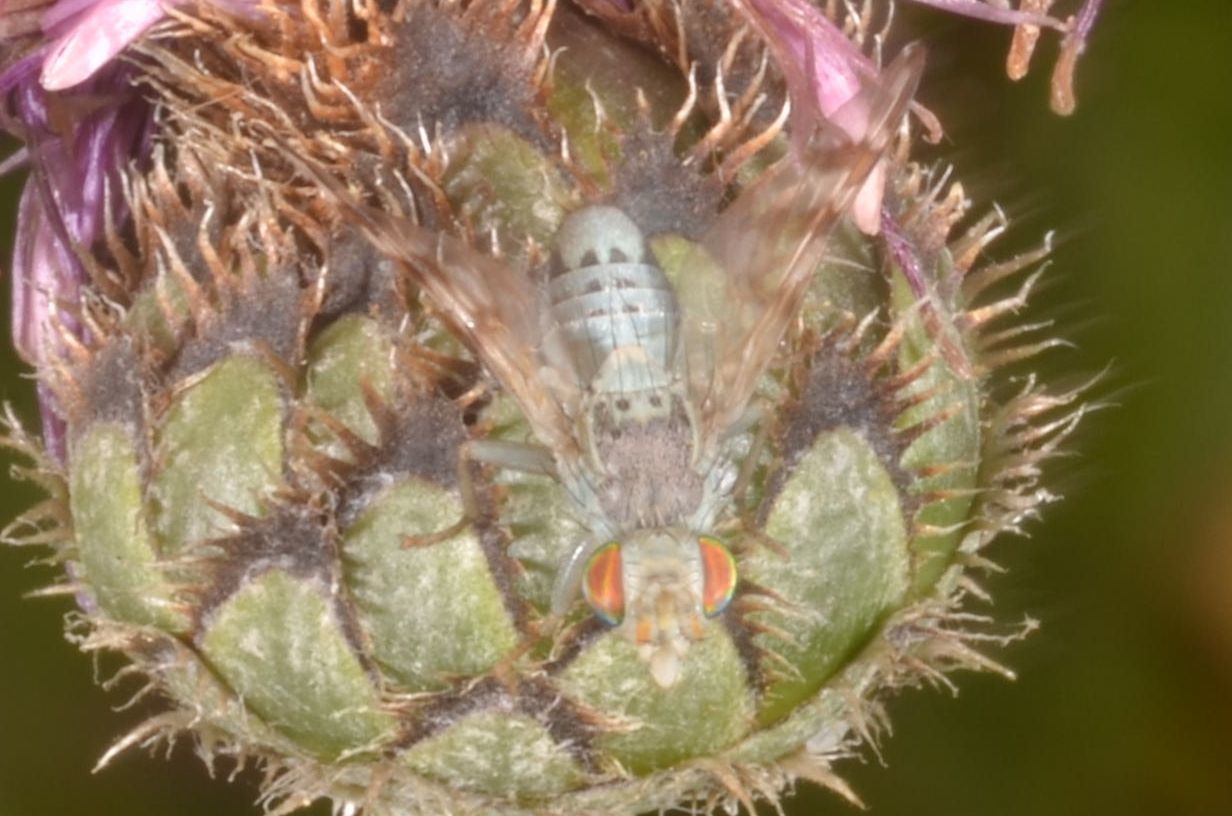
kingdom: Animalia
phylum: Arthropoda
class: Insecta
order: Diptera
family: Tephritidae
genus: Terellia
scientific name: Terellia ceratocera
